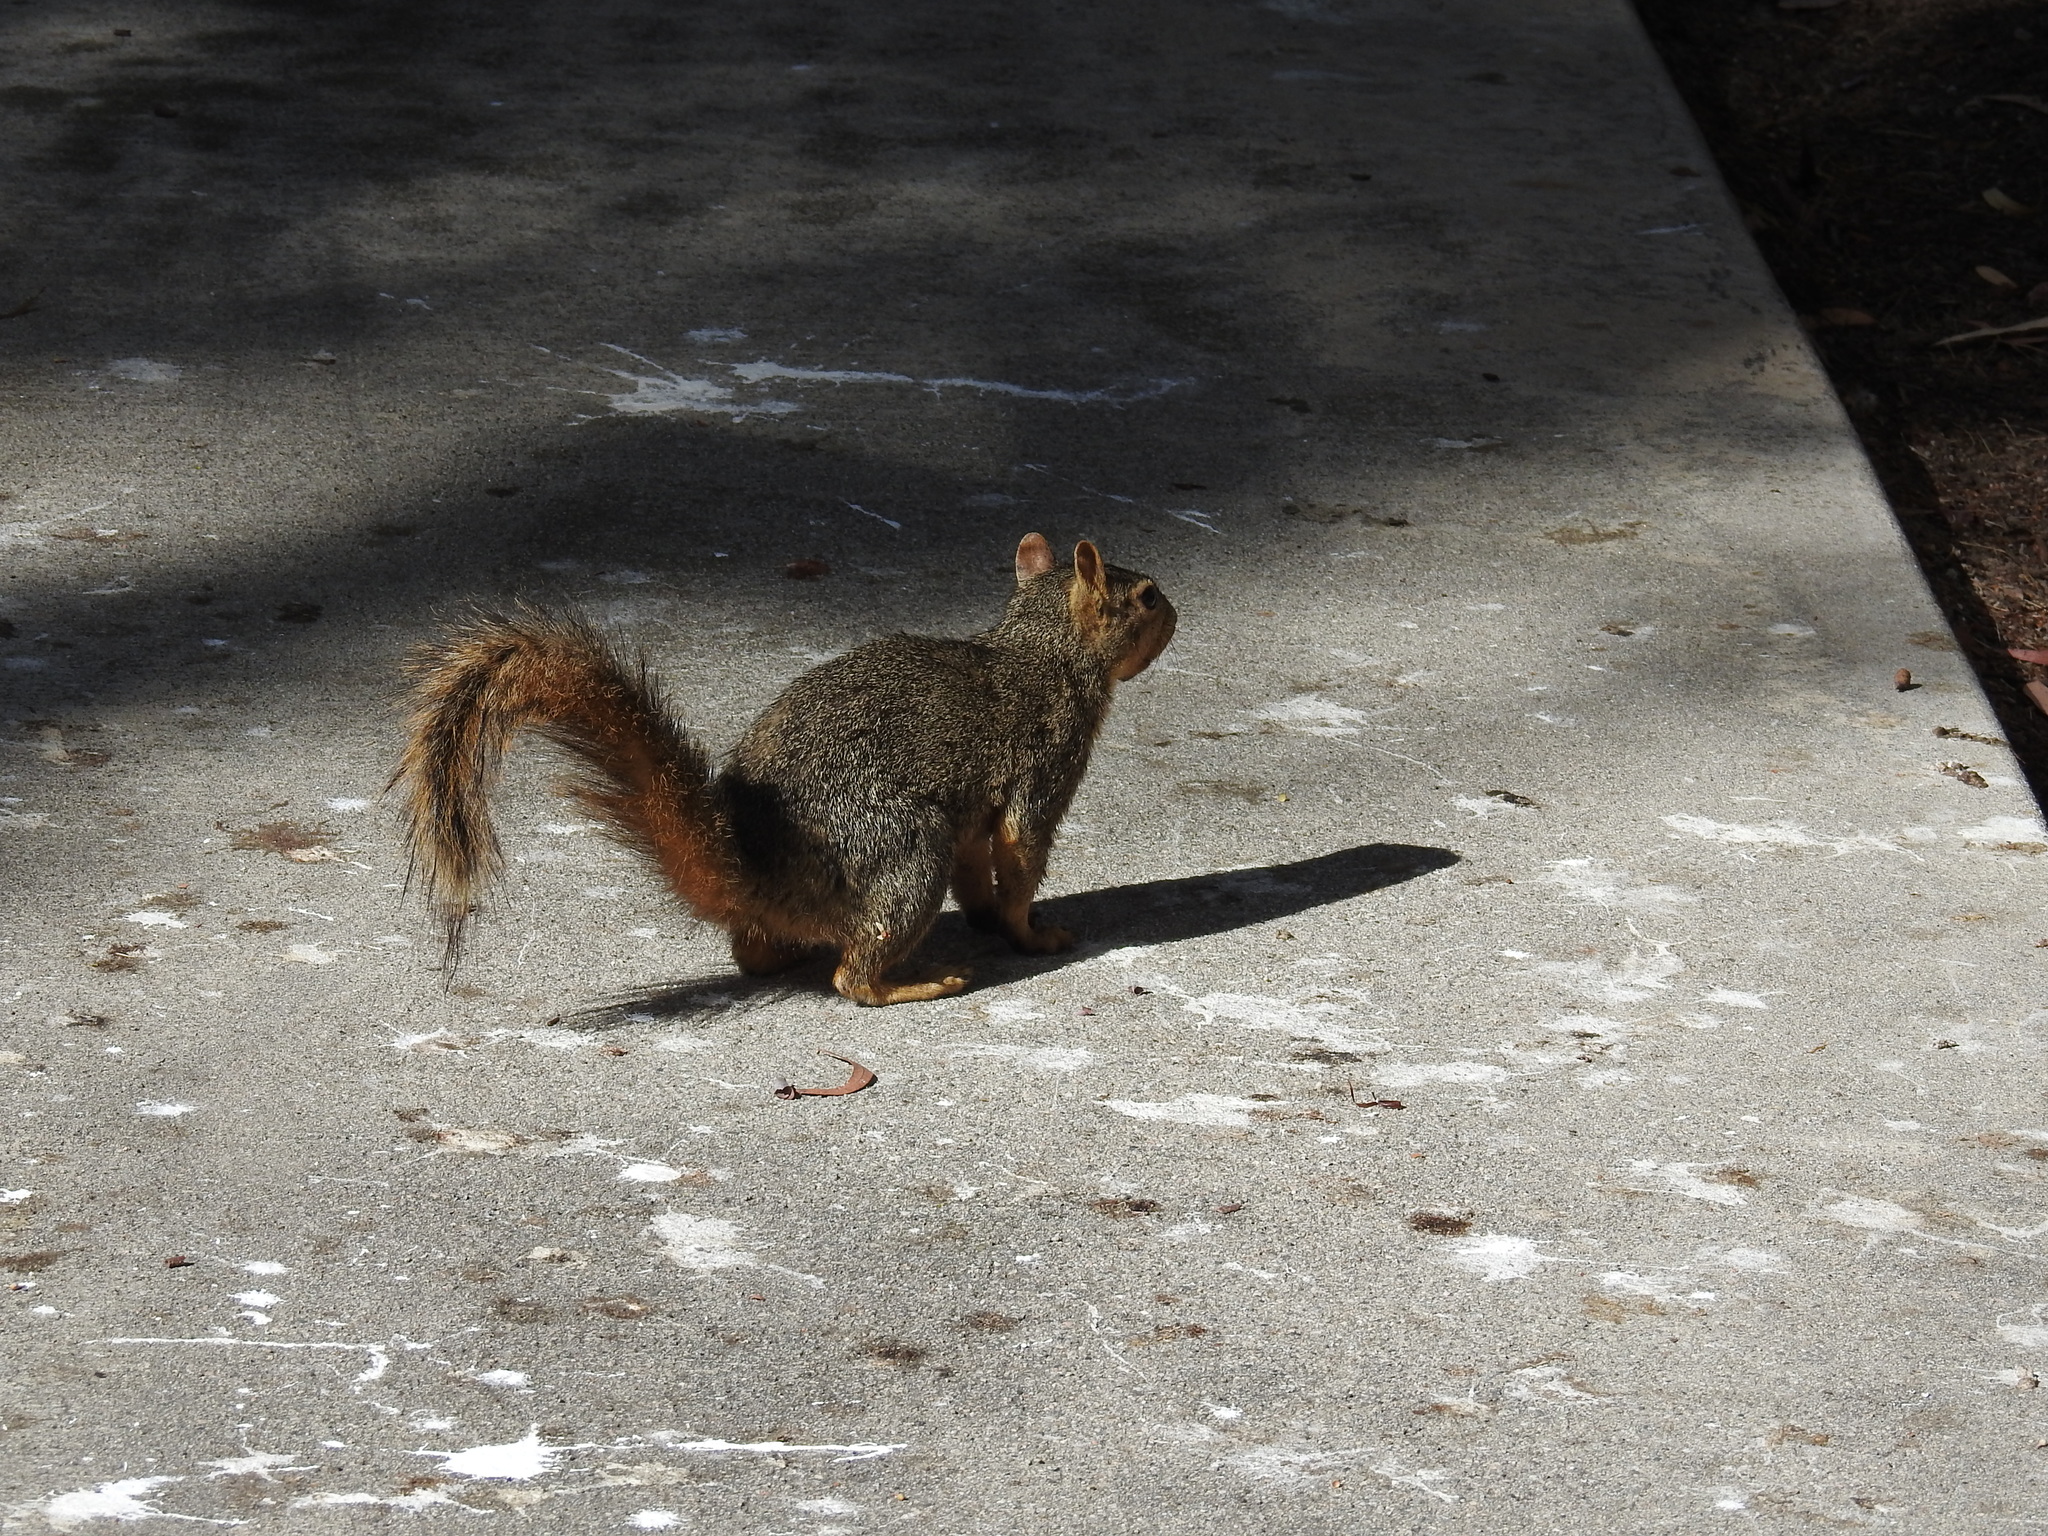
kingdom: Animalia
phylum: Chordata
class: Mammalia
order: Rodentia
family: Sciuridae
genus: Sciurus
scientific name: Sciurus niger
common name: Fox squirrel
